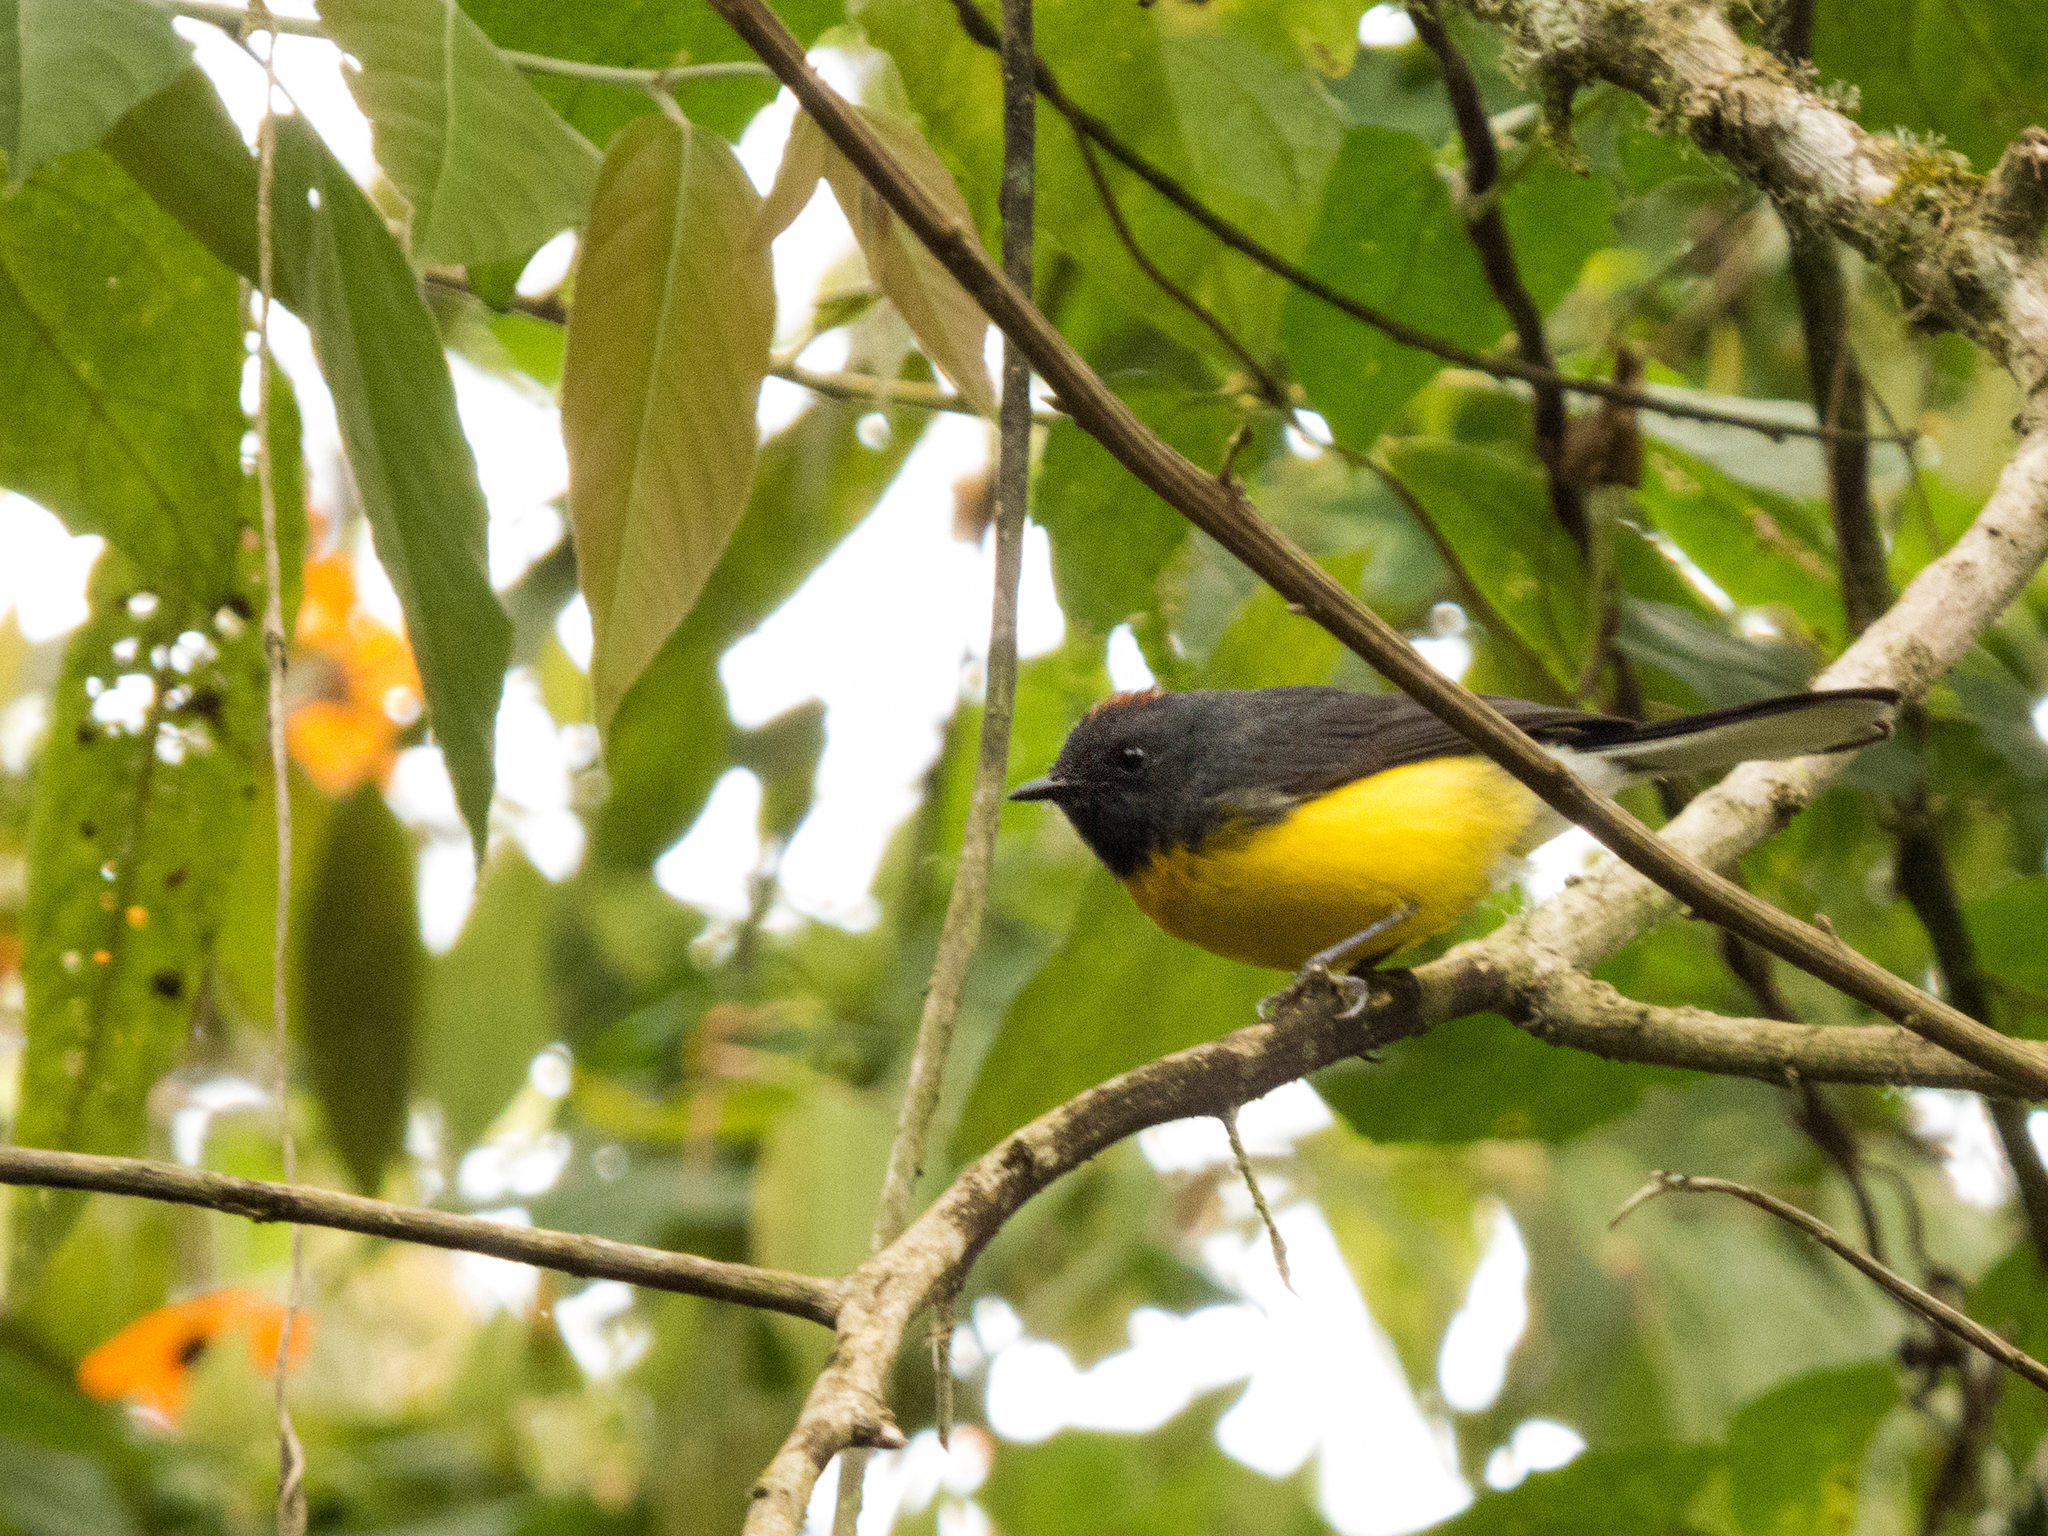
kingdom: Animalia
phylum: Chordata
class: Aves
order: Passeriformes
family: Parulidae
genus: Myioborus
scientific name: Myioborus miniatus
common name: Slate-throated redstart
